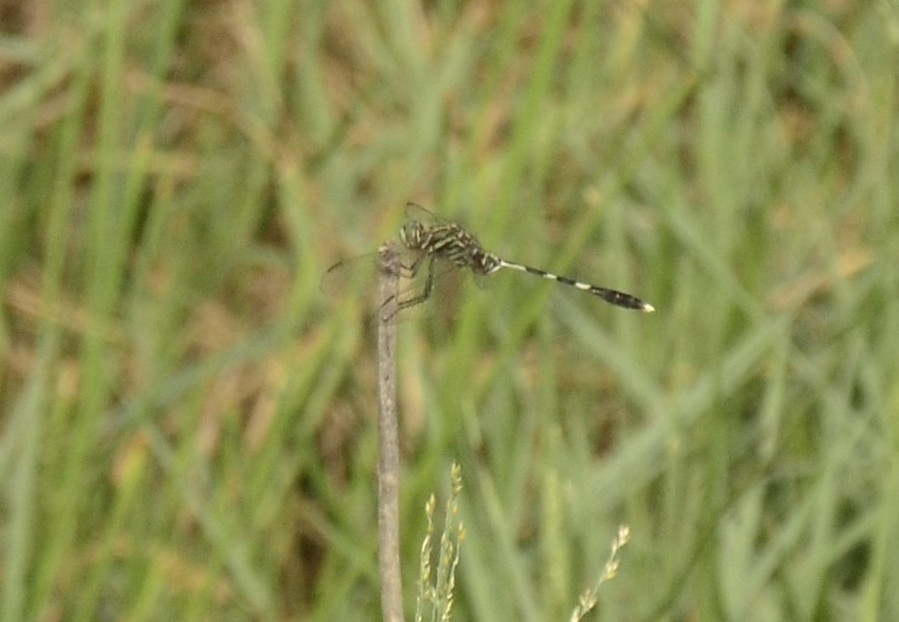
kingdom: Animalia
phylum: Arthropoda
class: Insecta
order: Odonata
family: Libellulidae
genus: Orthetrum
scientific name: Orthetrum sabina
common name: Slender skimmer
